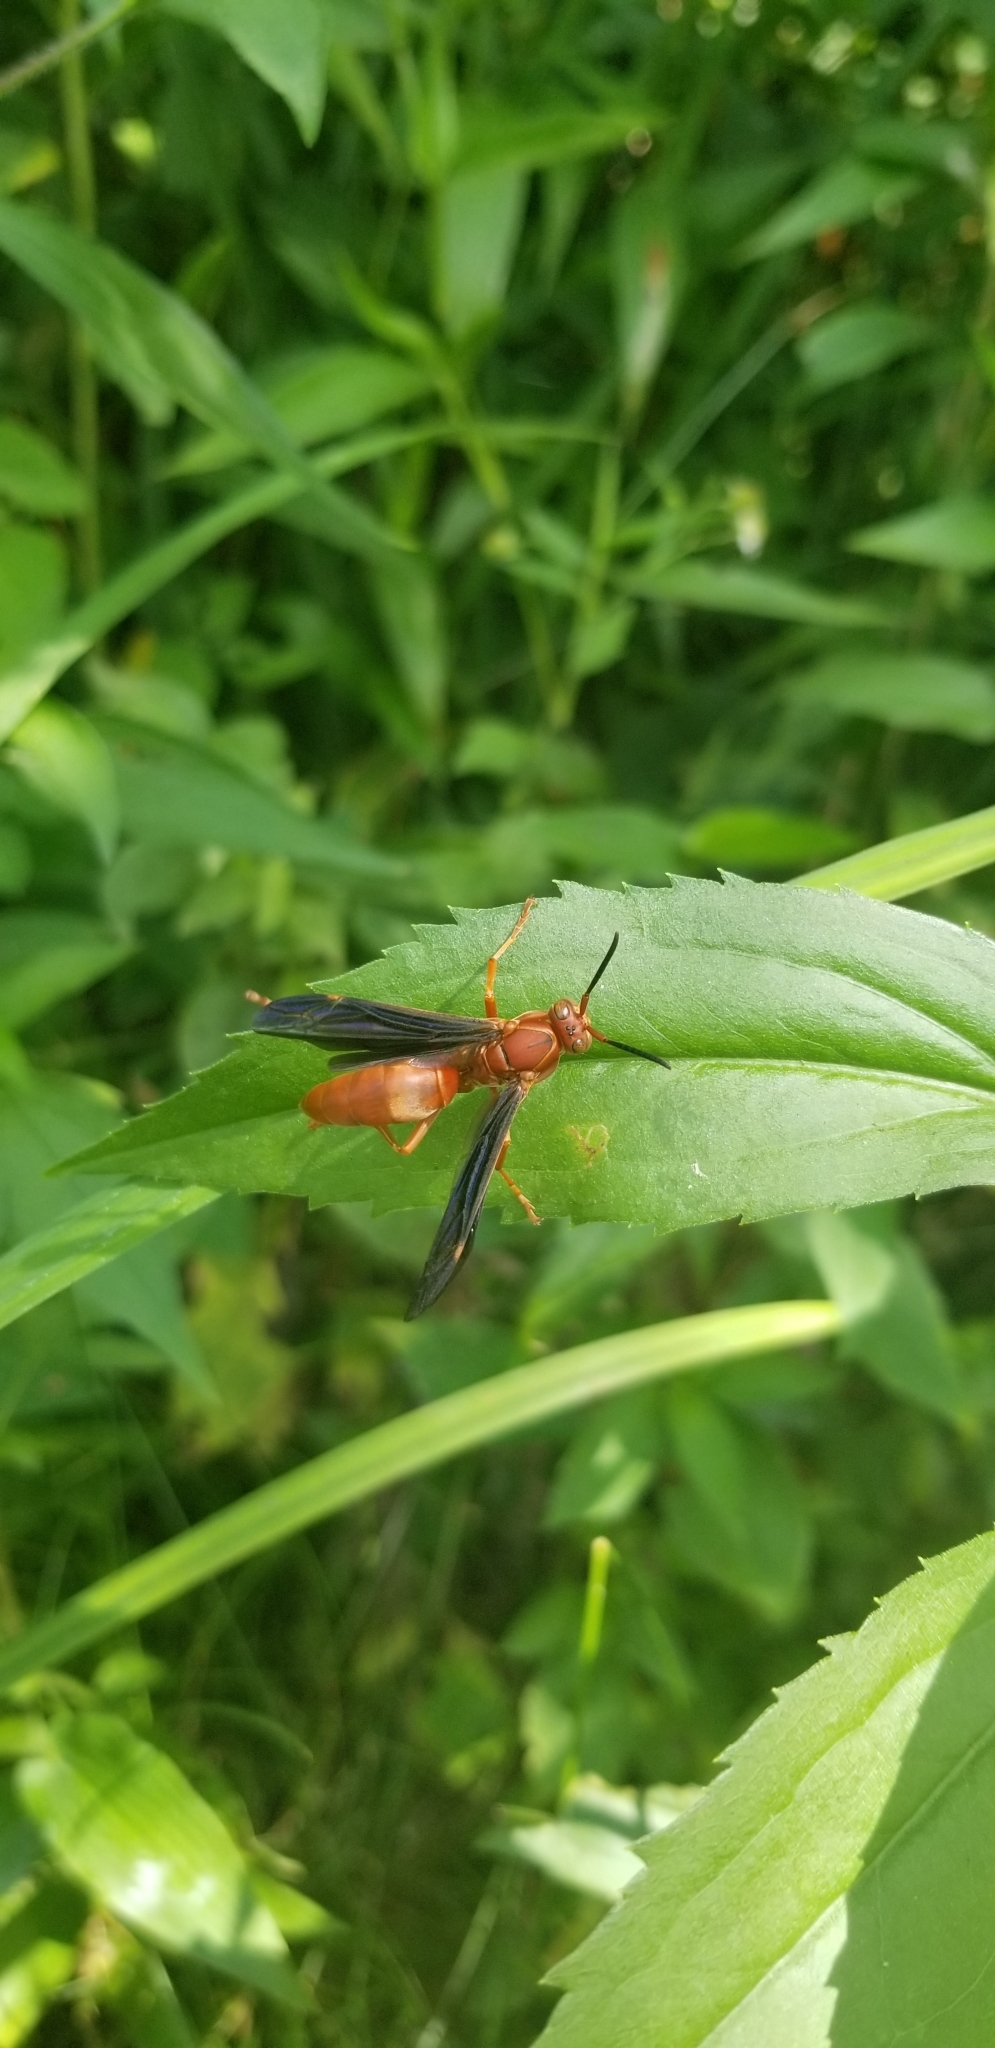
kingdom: Animalia
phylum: Arthropoda
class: Insecta
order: Hymenoptera
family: Vespidae
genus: Fuscopolistes
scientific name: Fuscopolistes
